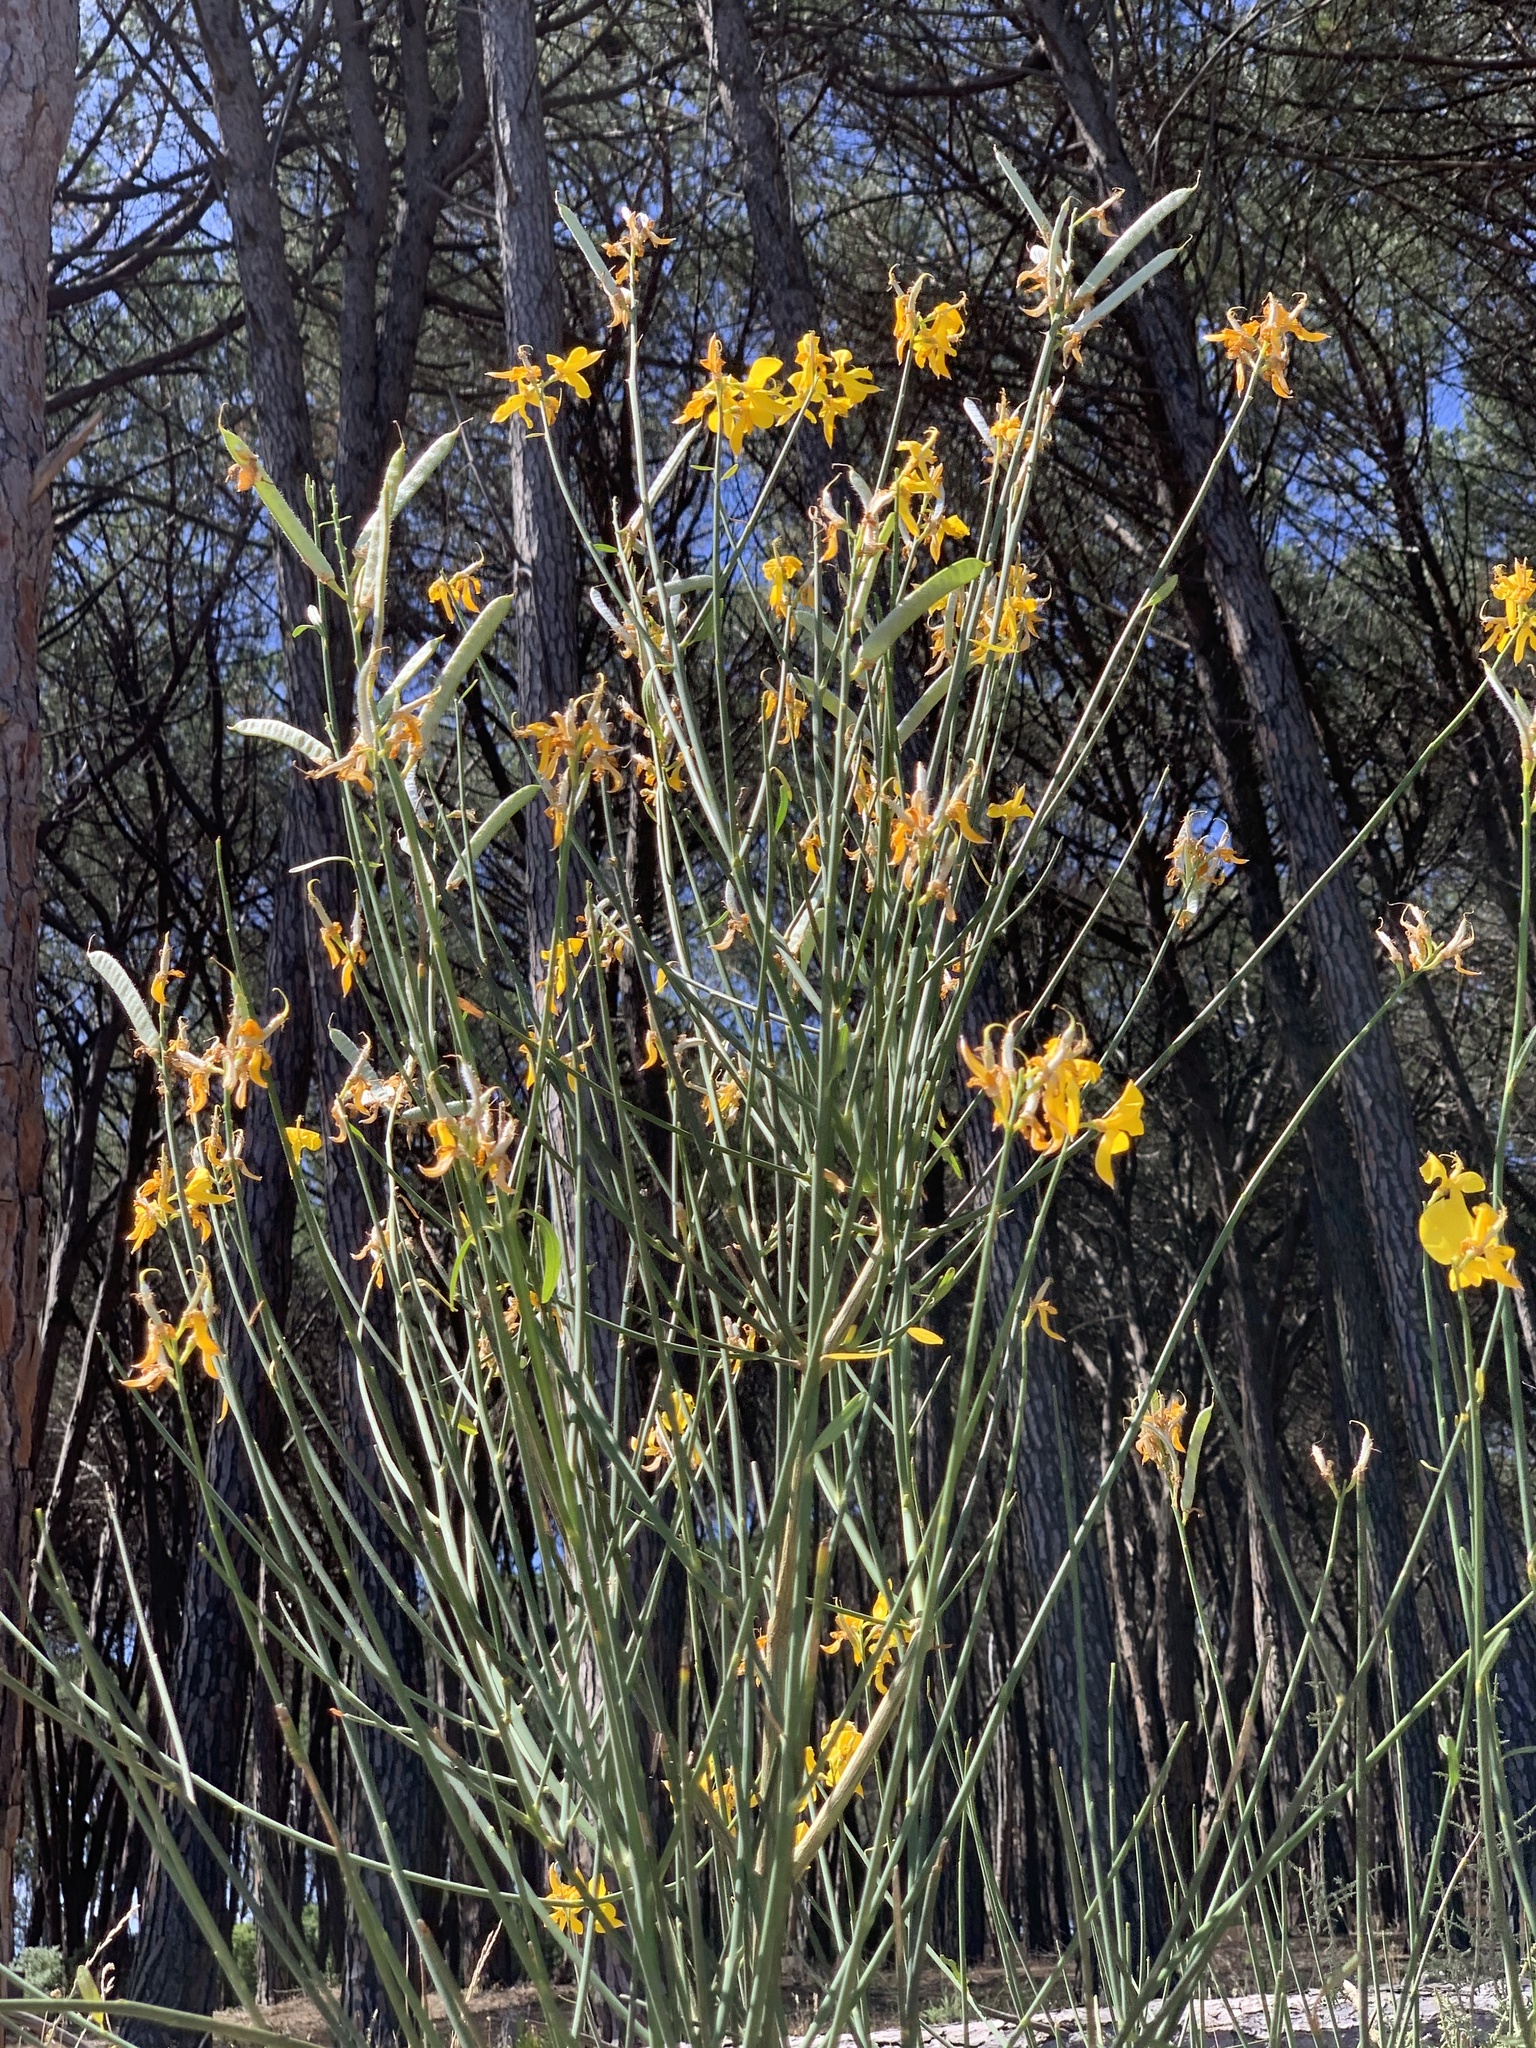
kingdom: Plantae
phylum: Tracheophyta
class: Magnoliopsida
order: Fabales
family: Fabaceae
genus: Spartium
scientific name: Spartium junceum
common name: Spanish broom
